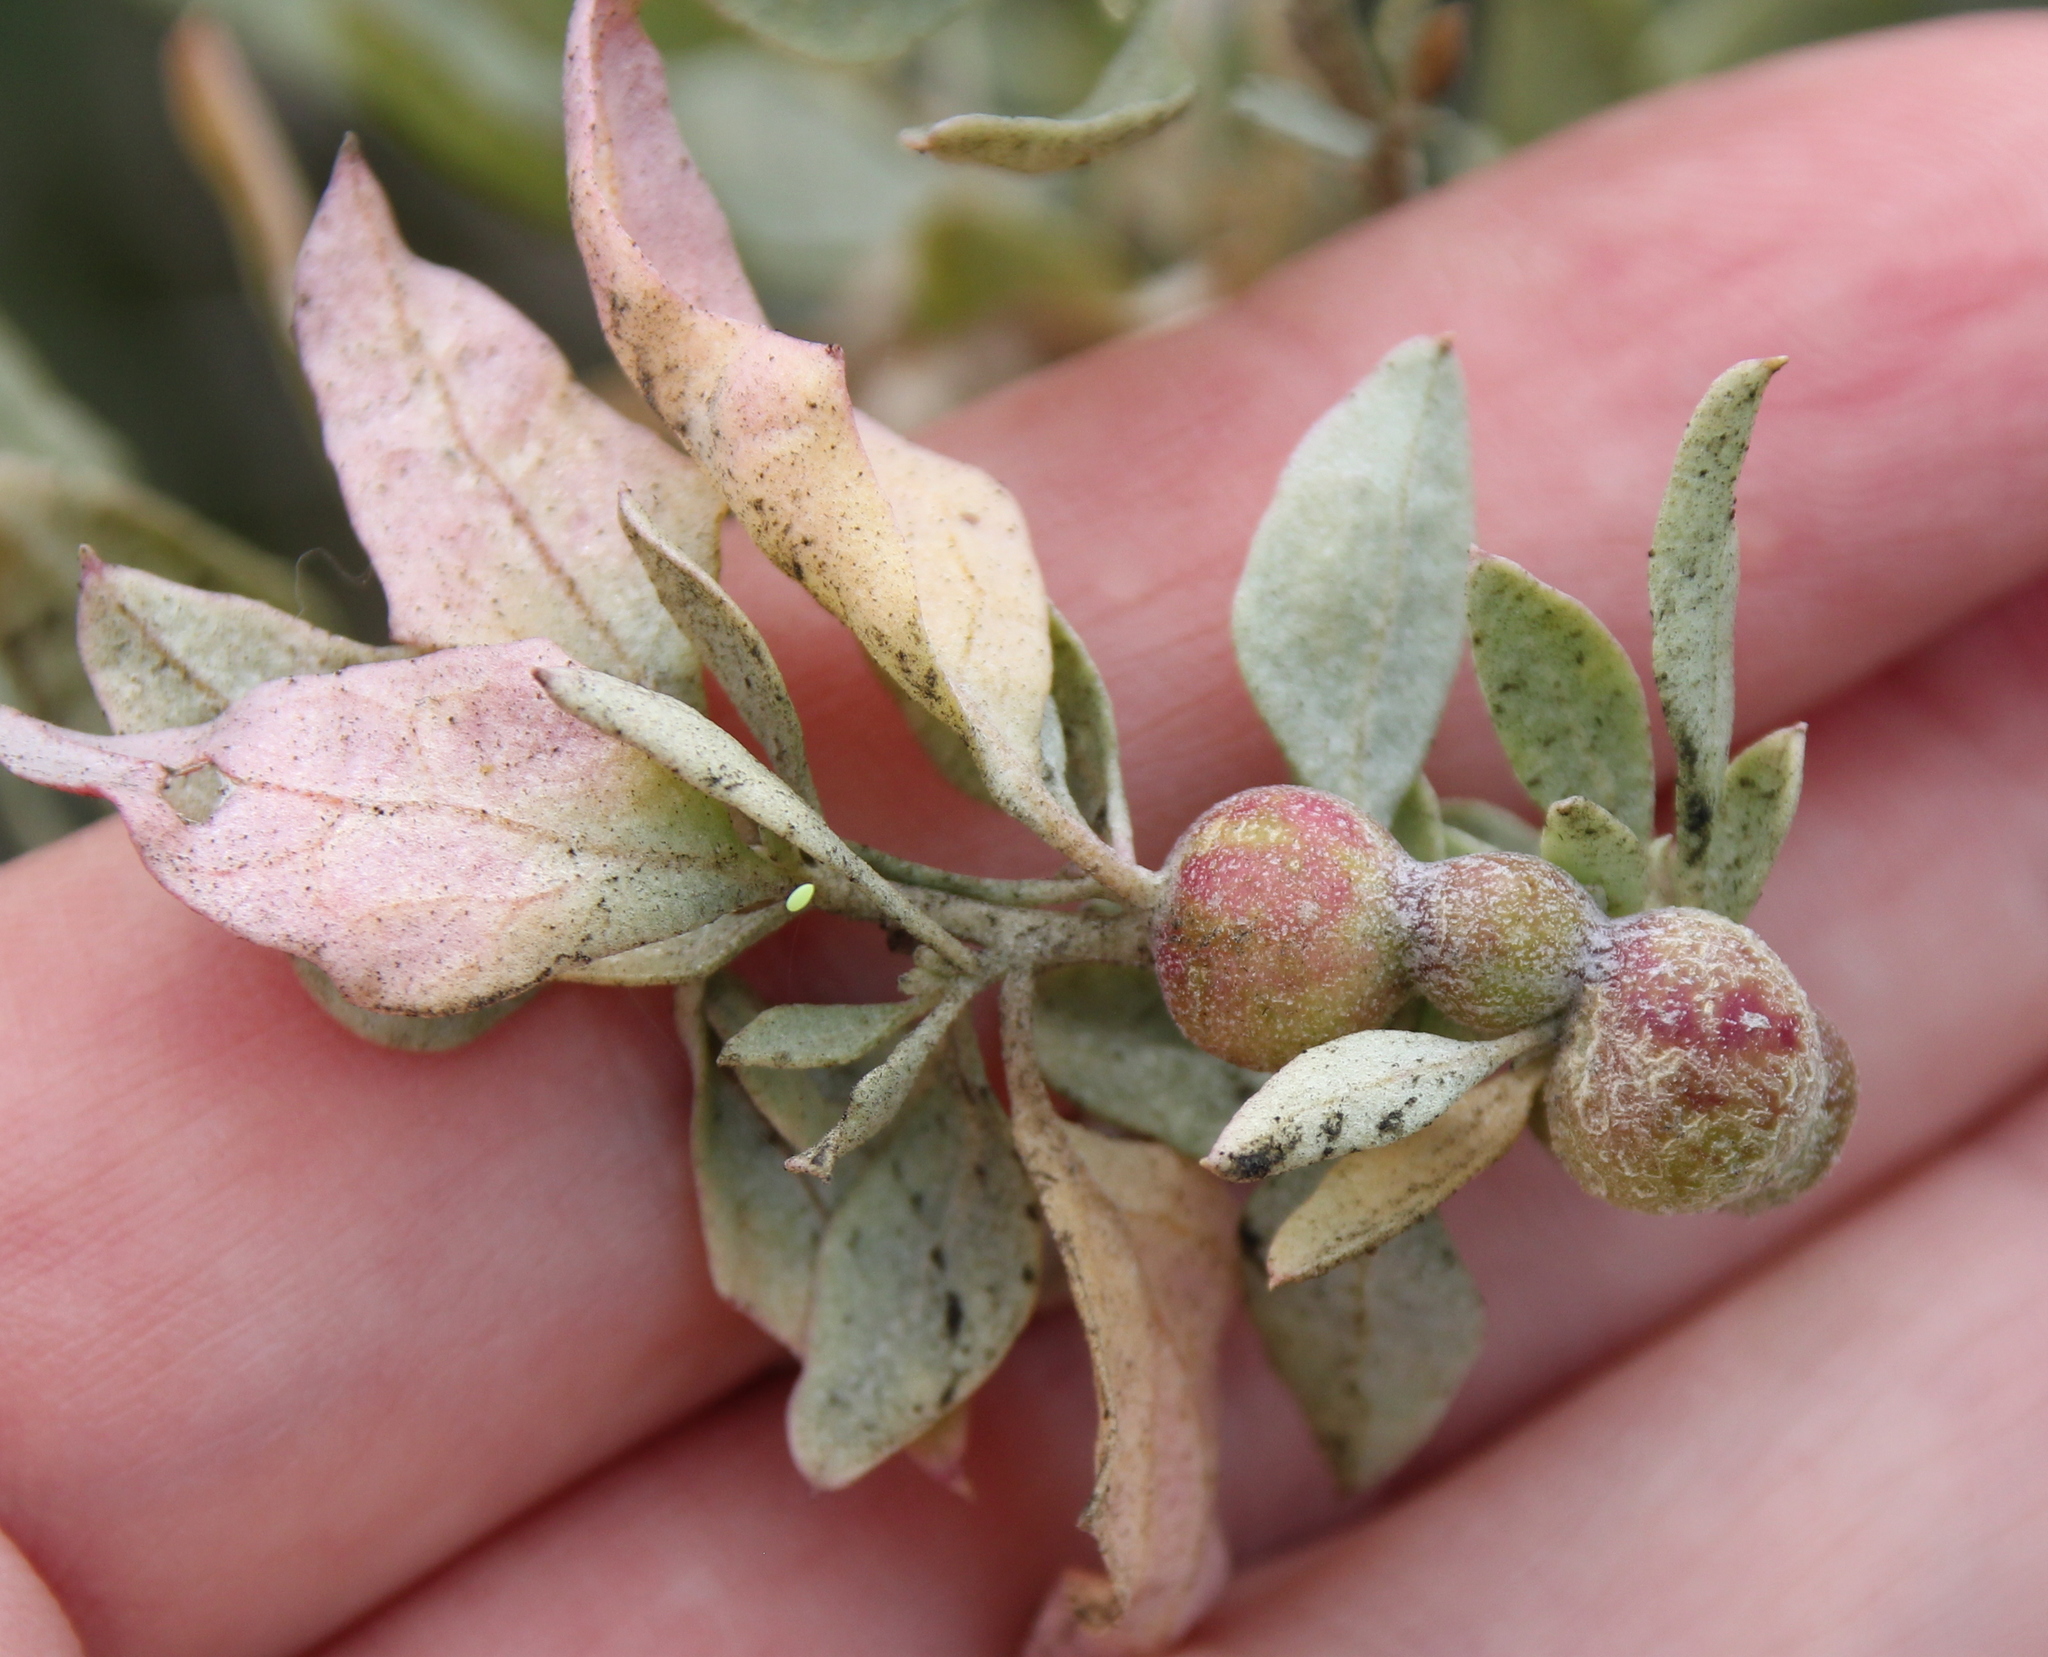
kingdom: Animalia
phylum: Arthropoda
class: Insecta
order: Diptera
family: Cecidomyiidae
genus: Asphondylia
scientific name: Asphondylia atriplicis
